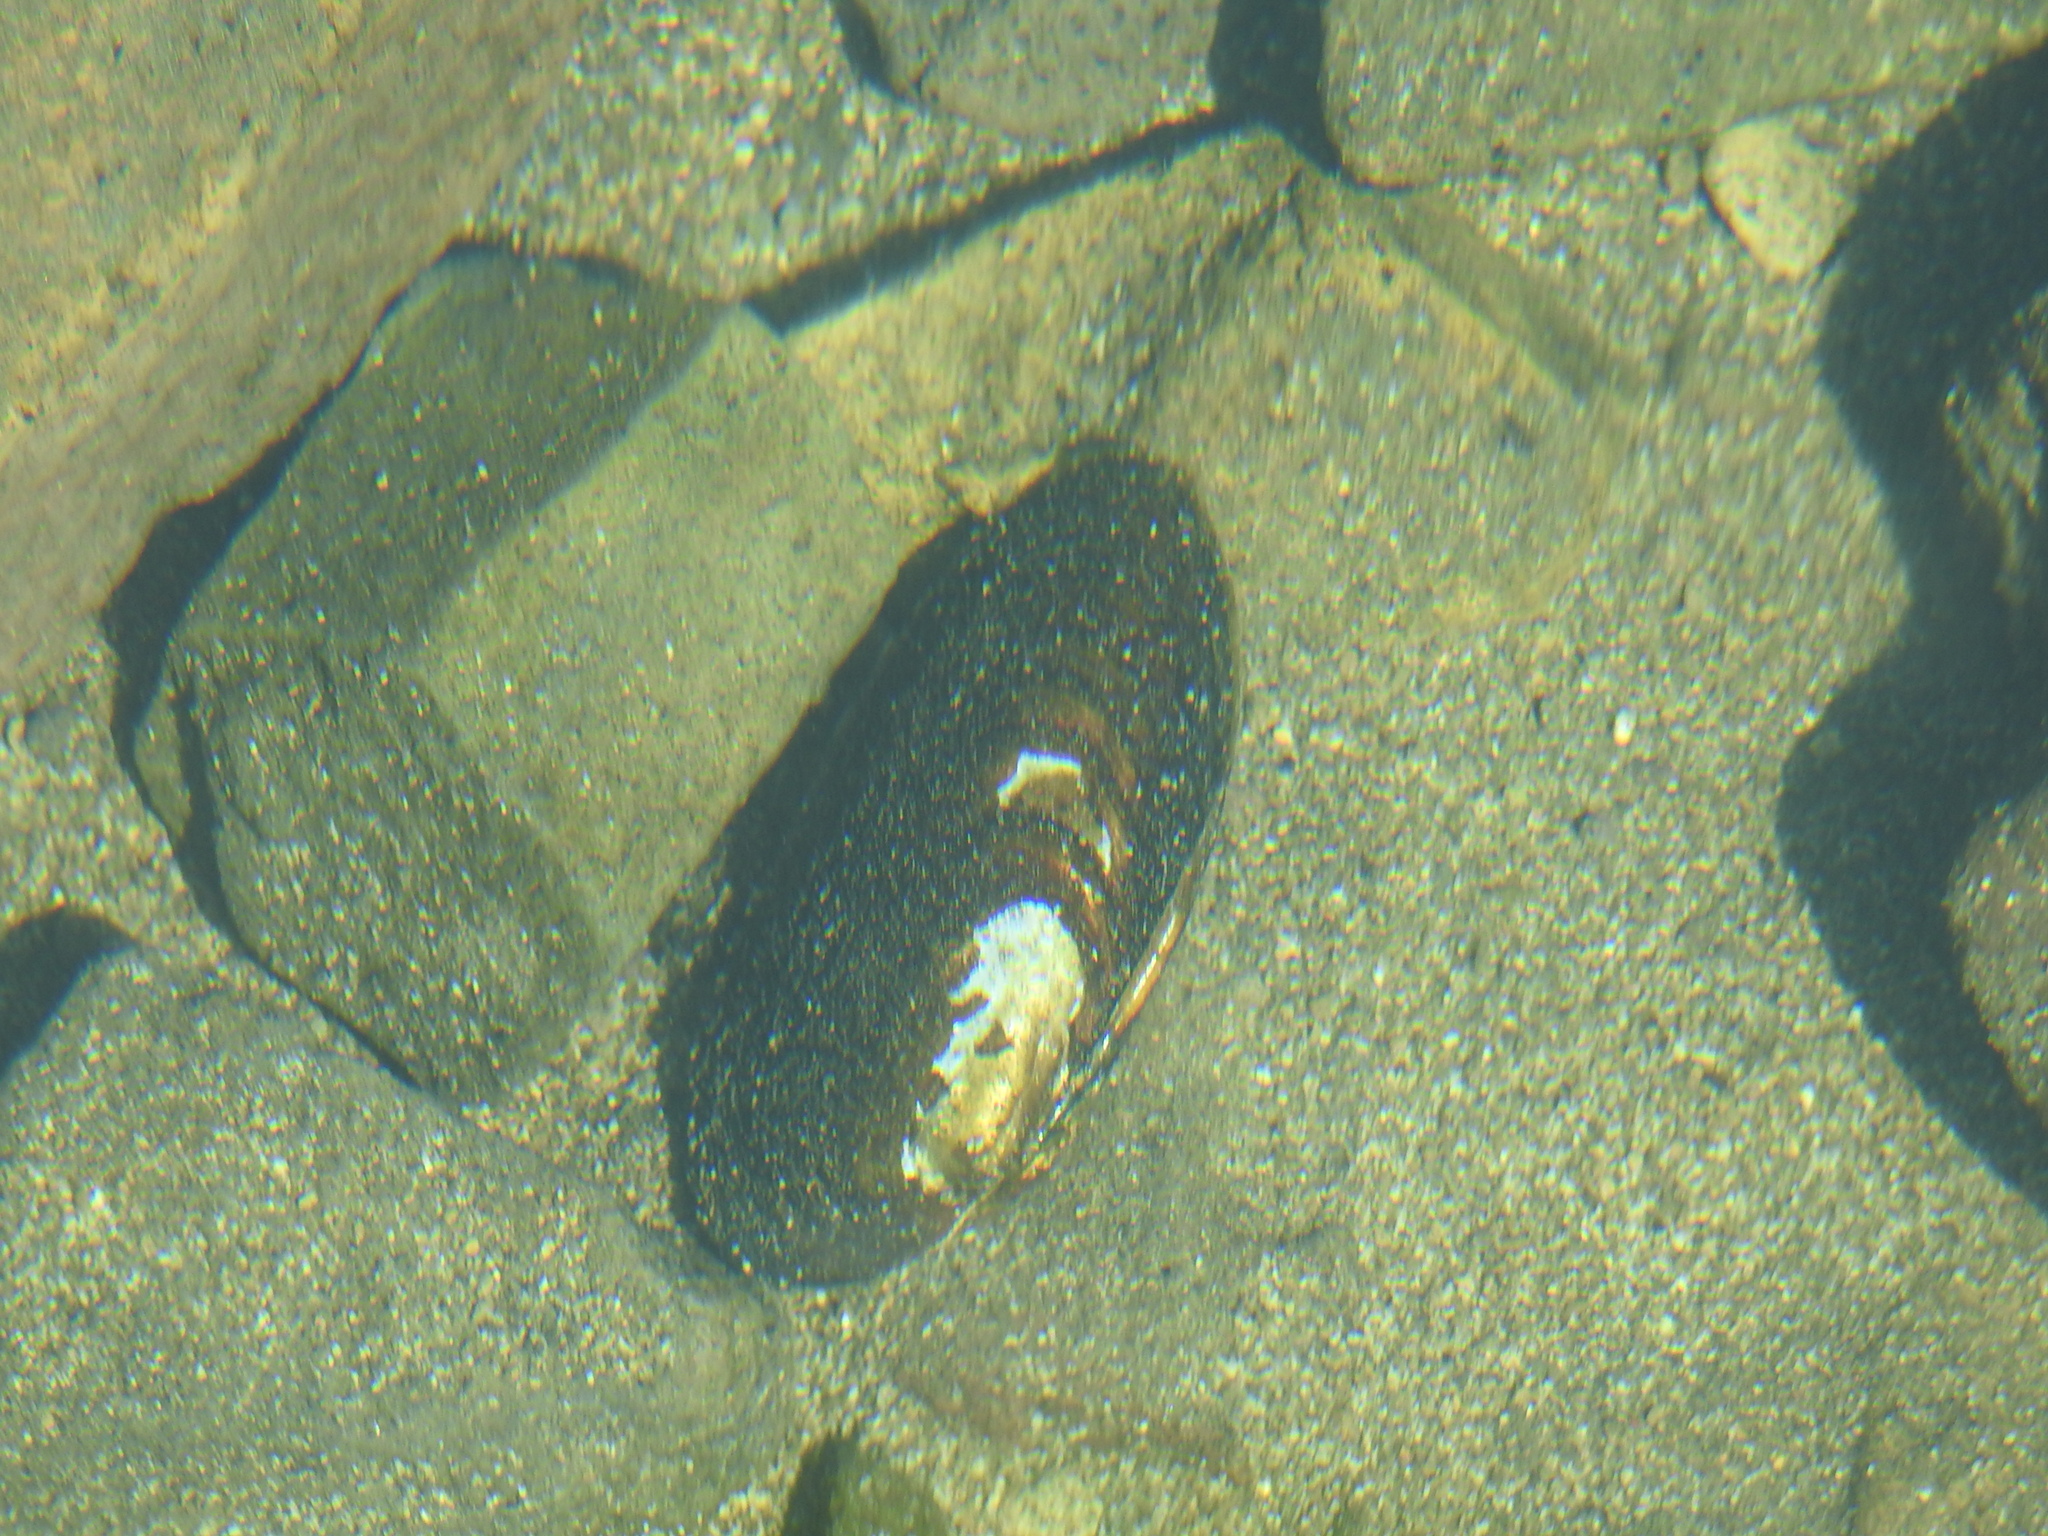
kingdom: Animalia
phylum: Mollusca
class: Bivalvia
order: Unionida
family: Hyriidae
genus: Diplodon
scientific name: Diplodon chilensis
